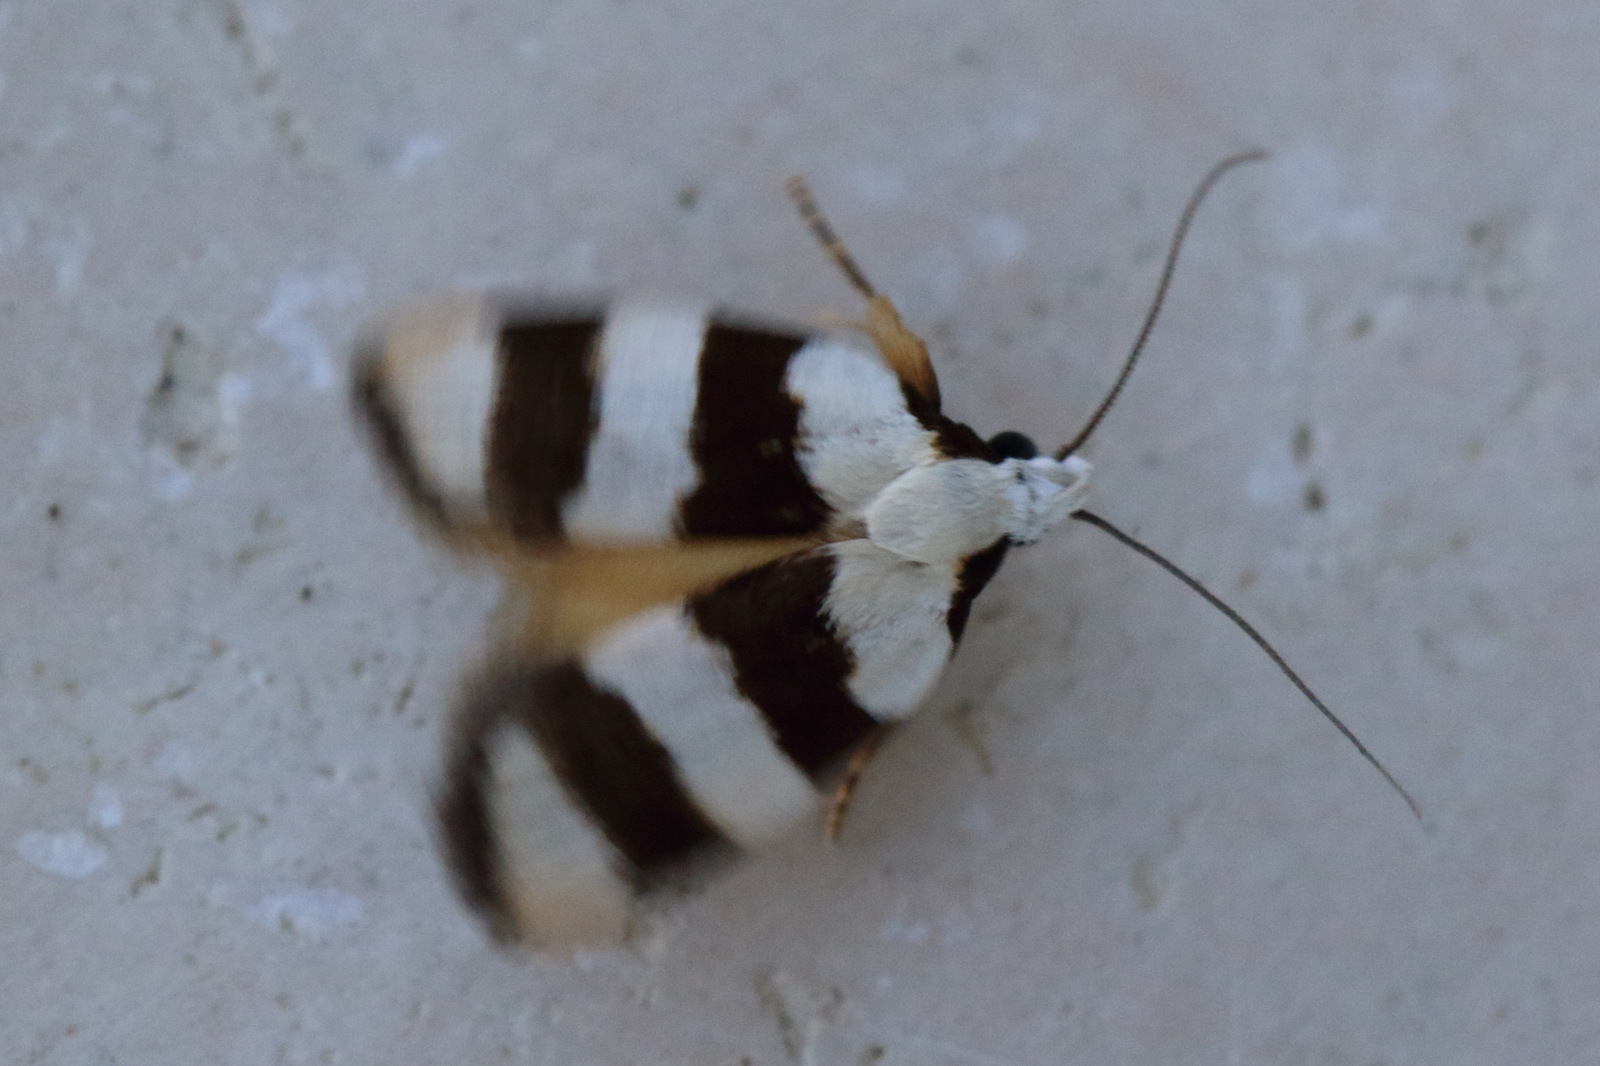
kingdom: Animalia
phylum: Arthropoda
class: Insecta
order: Lepidoptera
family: Oecophoridae
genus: Zonopetala
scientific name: Zonopetala divisella
